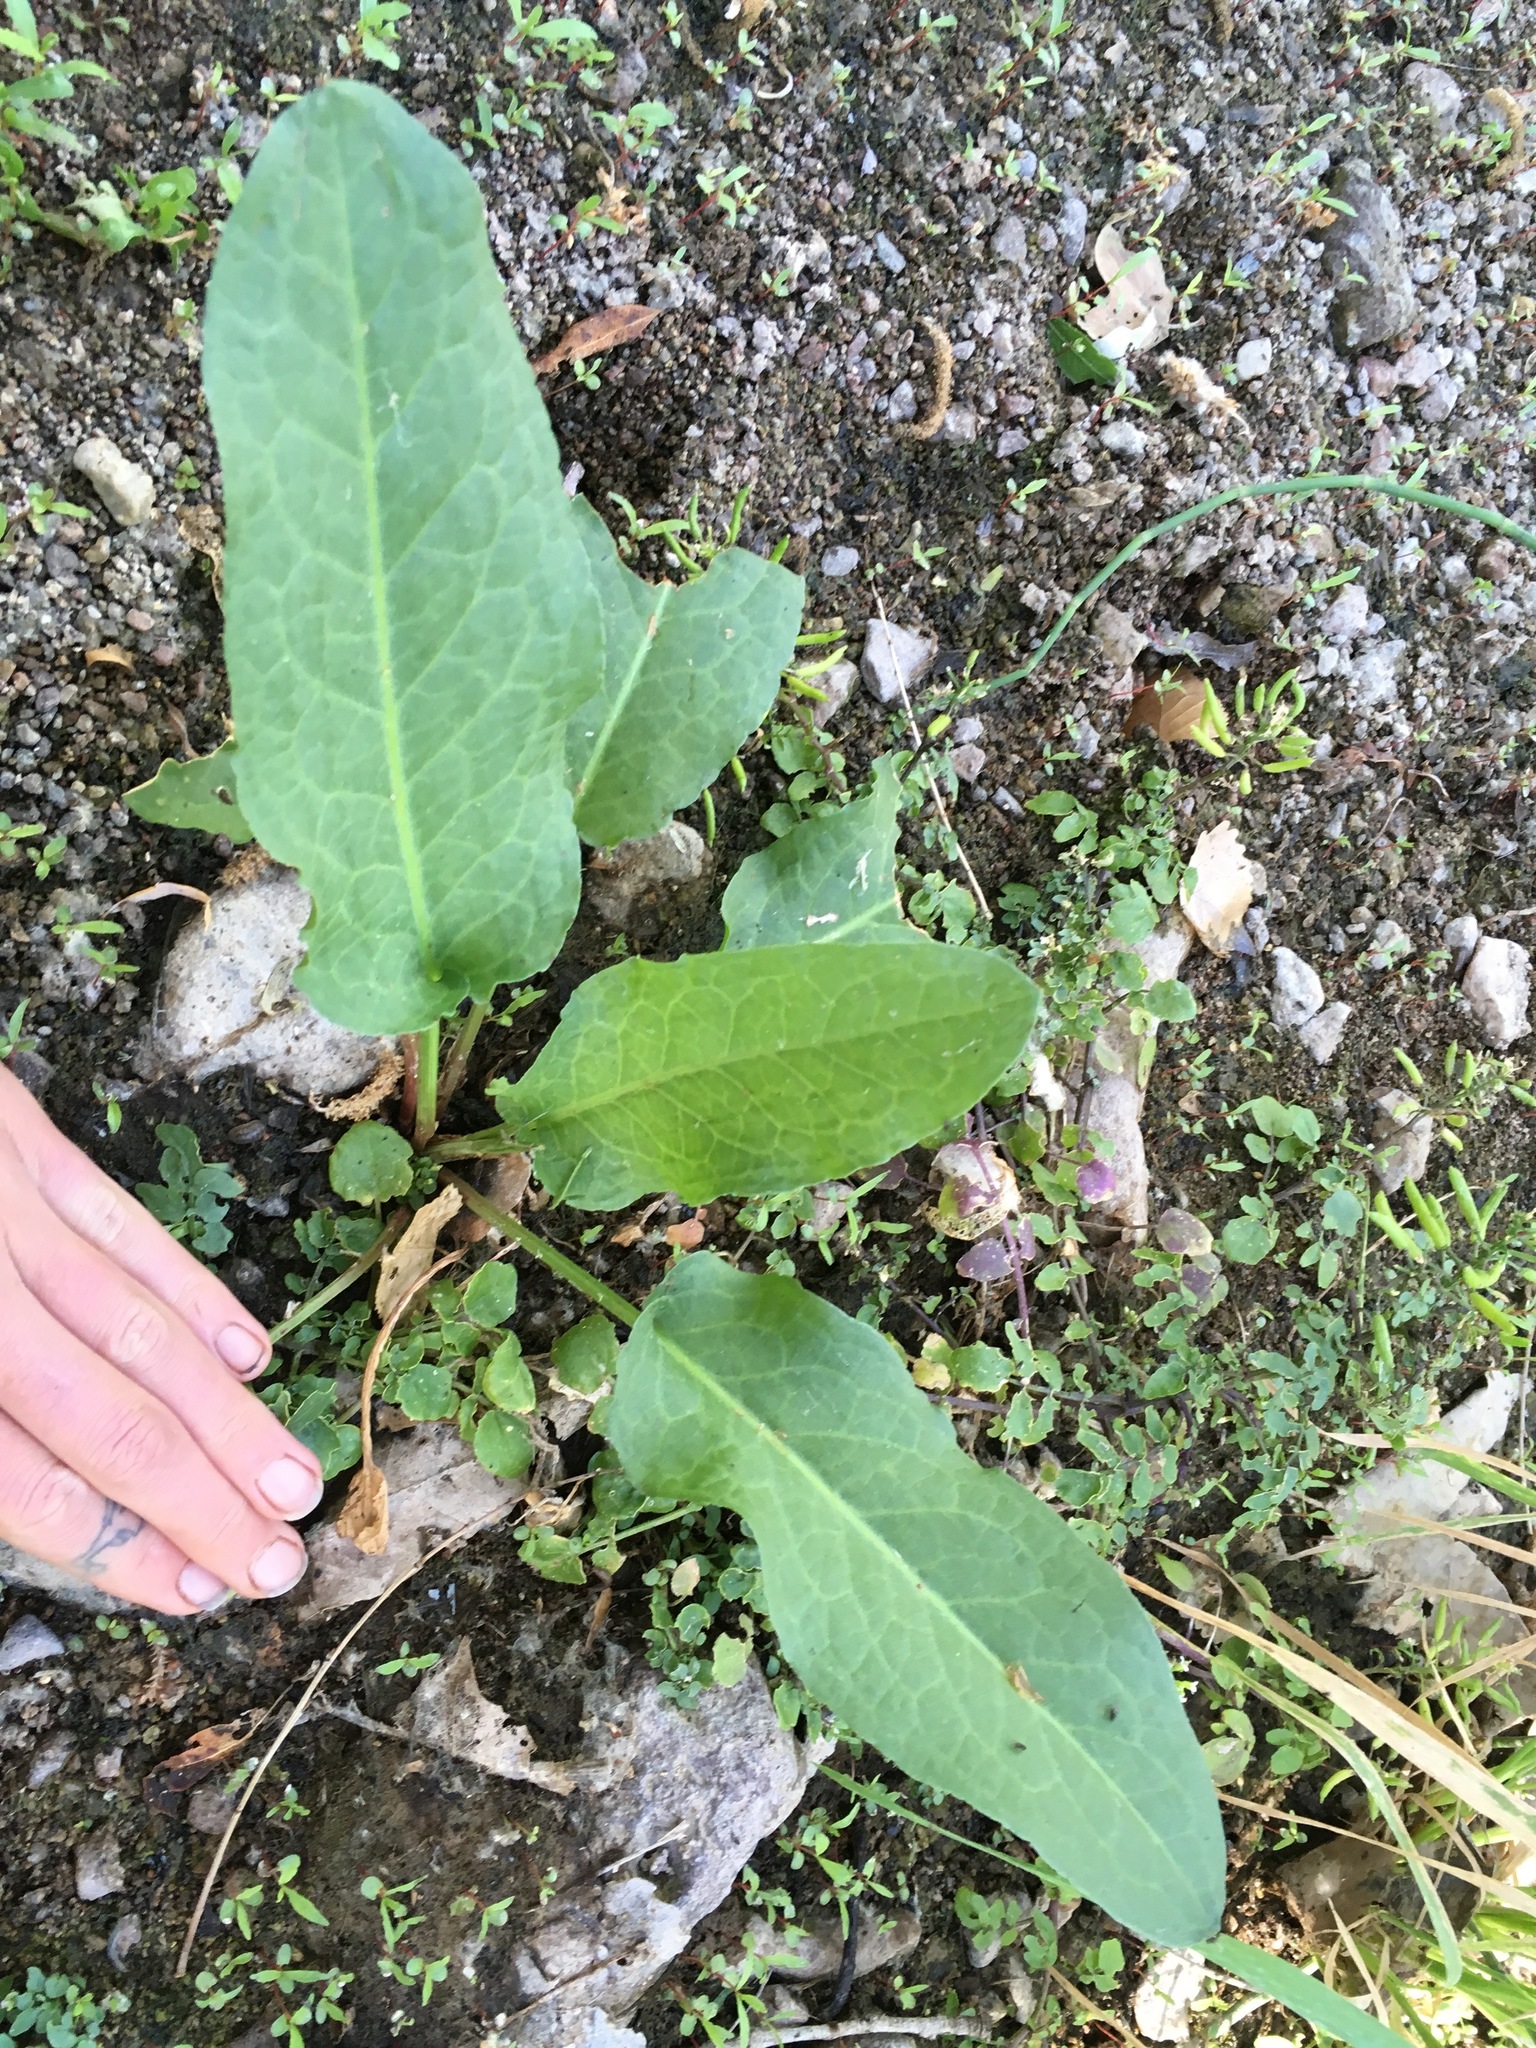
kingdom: Plantae
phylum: Tracheophyta
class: Magnoliopsida
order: Piperales
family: Saururaceae
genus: Anemopsis
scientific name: Anemopsis californica
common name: Apache-beads
